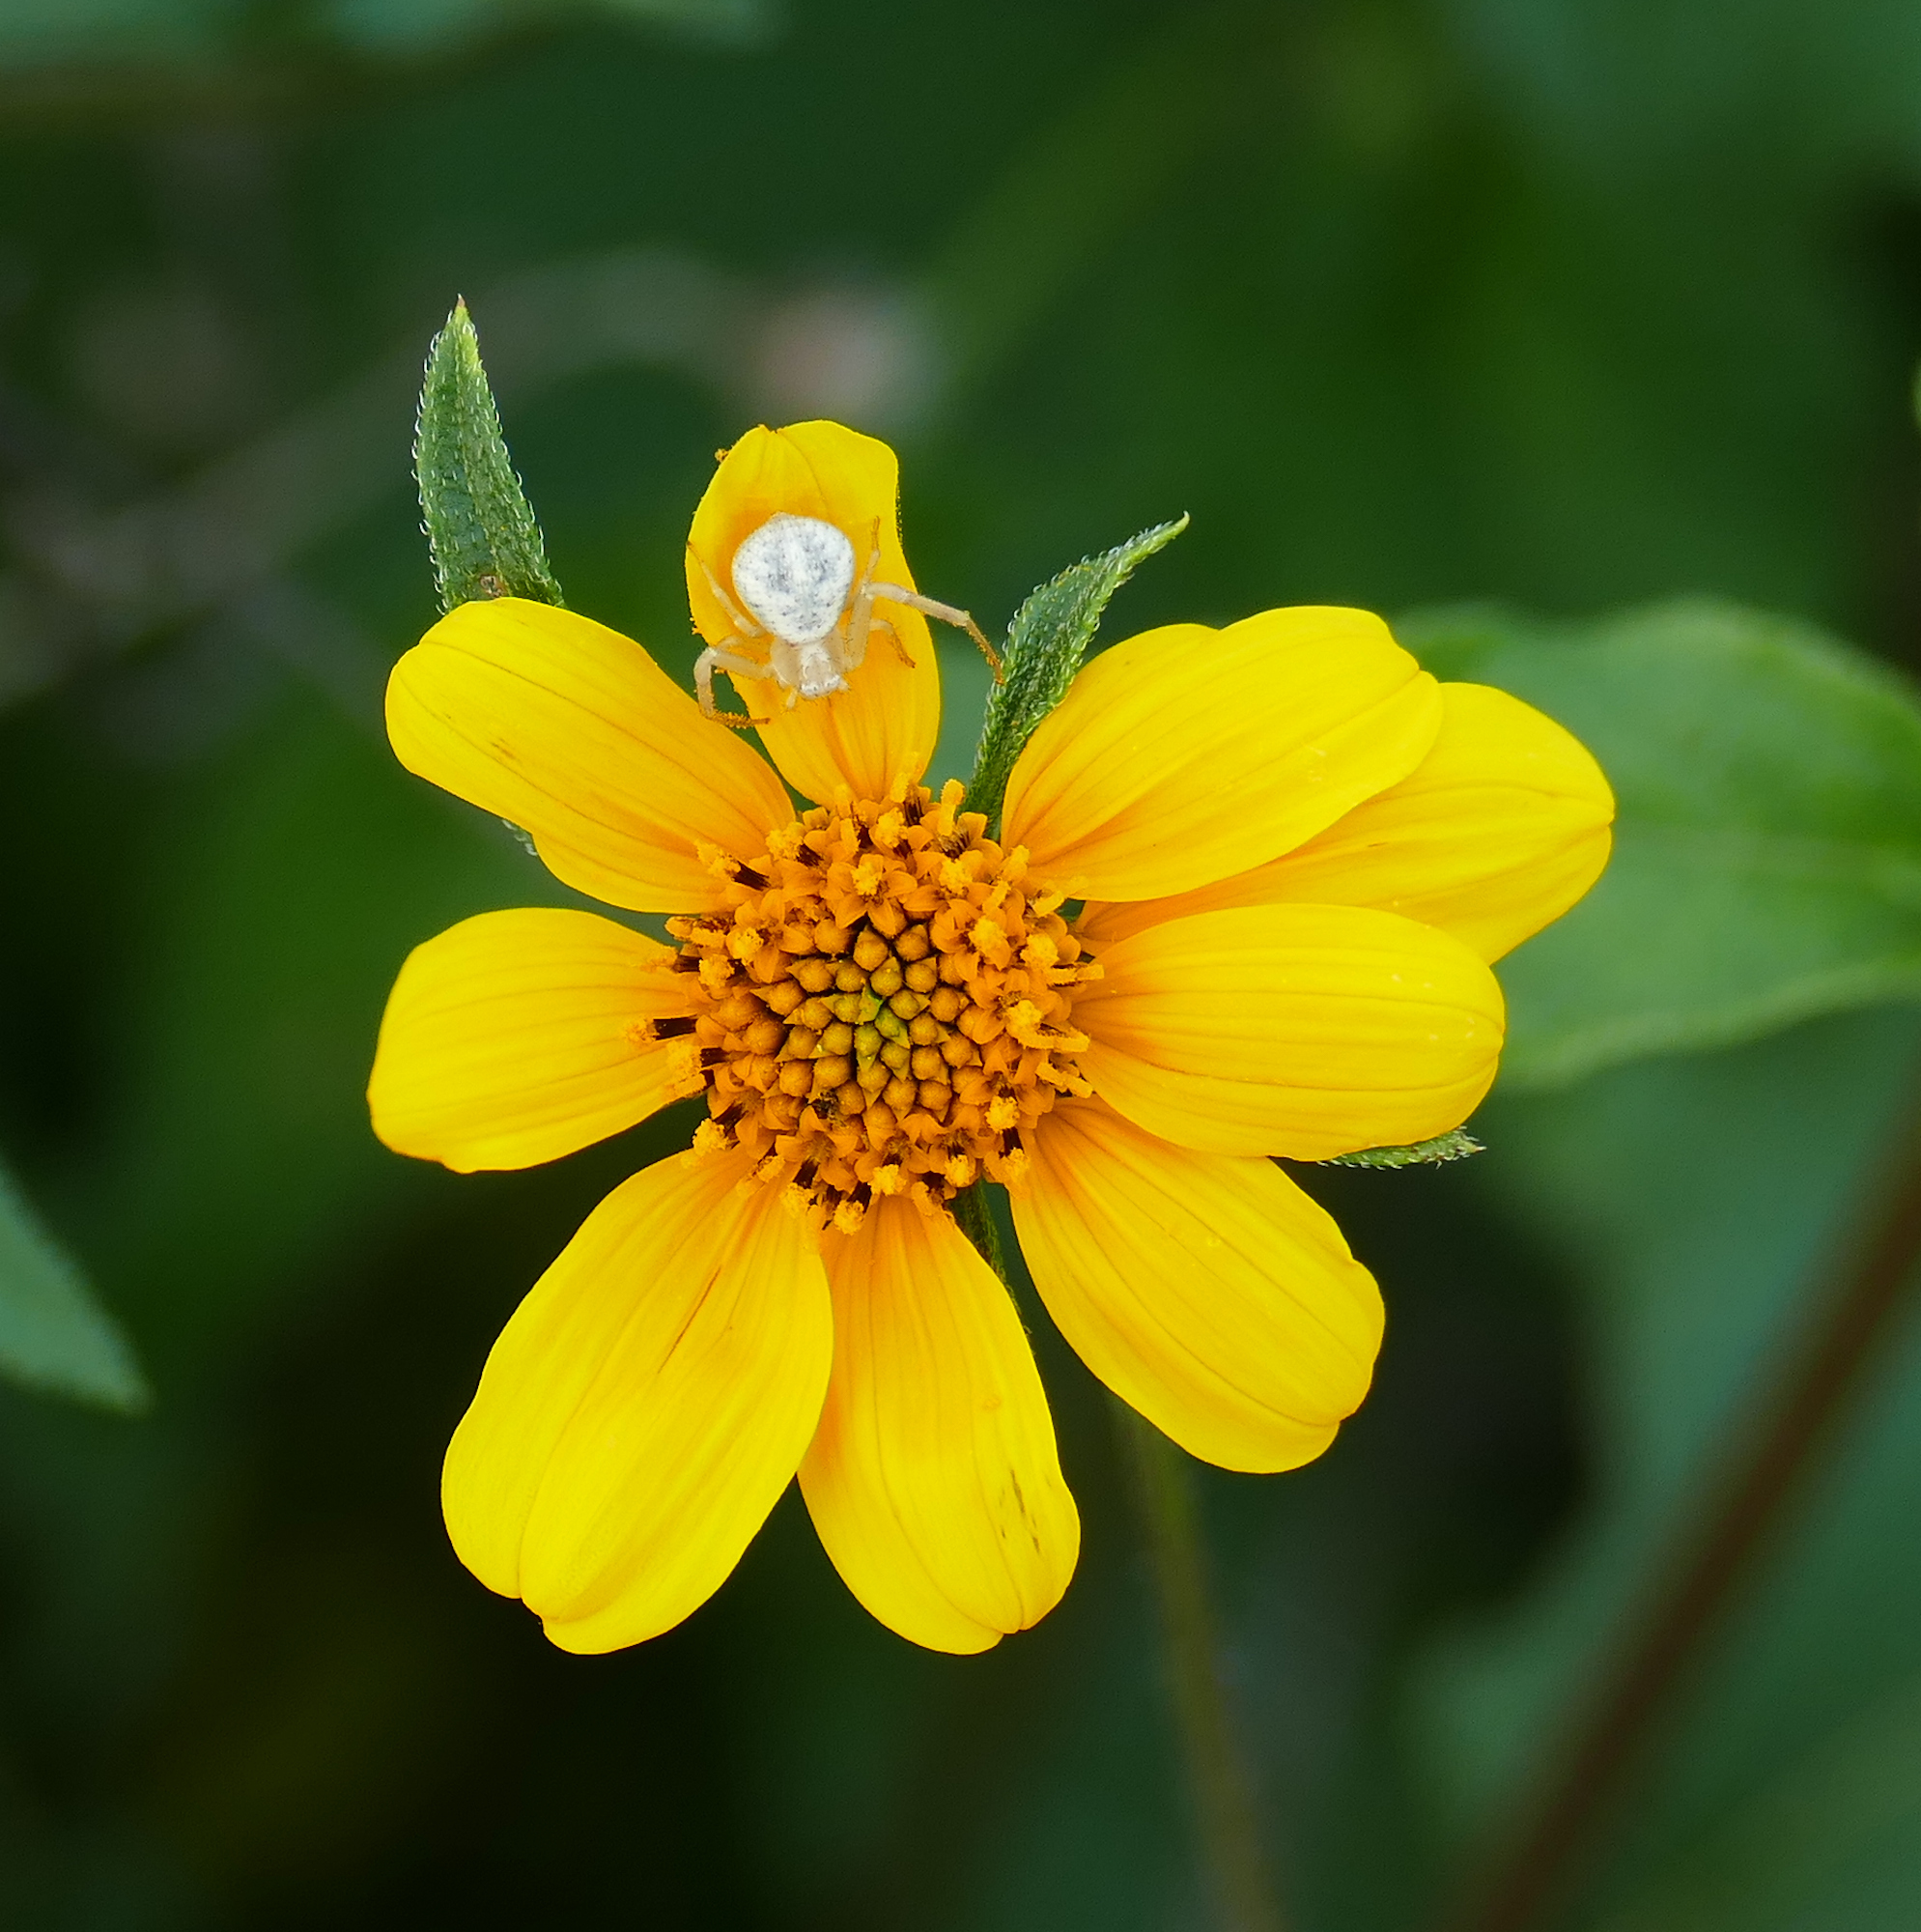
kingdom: Plantae
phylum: Tracheophyta
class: Magnoliopsida
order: Asterales
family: Asteraceae
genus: Viguiera
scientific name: Viguiera dentata
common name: Toothleaf
